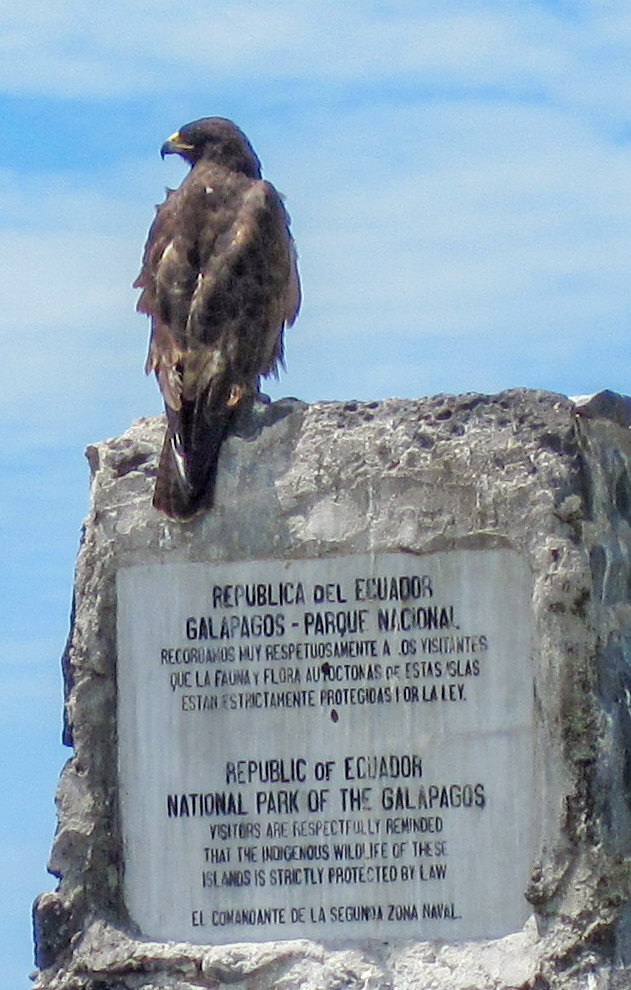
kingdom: Animalia
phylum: Chordata
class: Aves
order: Accipitriformes
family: Accipitridae
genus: Buteo
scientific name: Buteo galapagoensis
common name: Galapagos hawk
